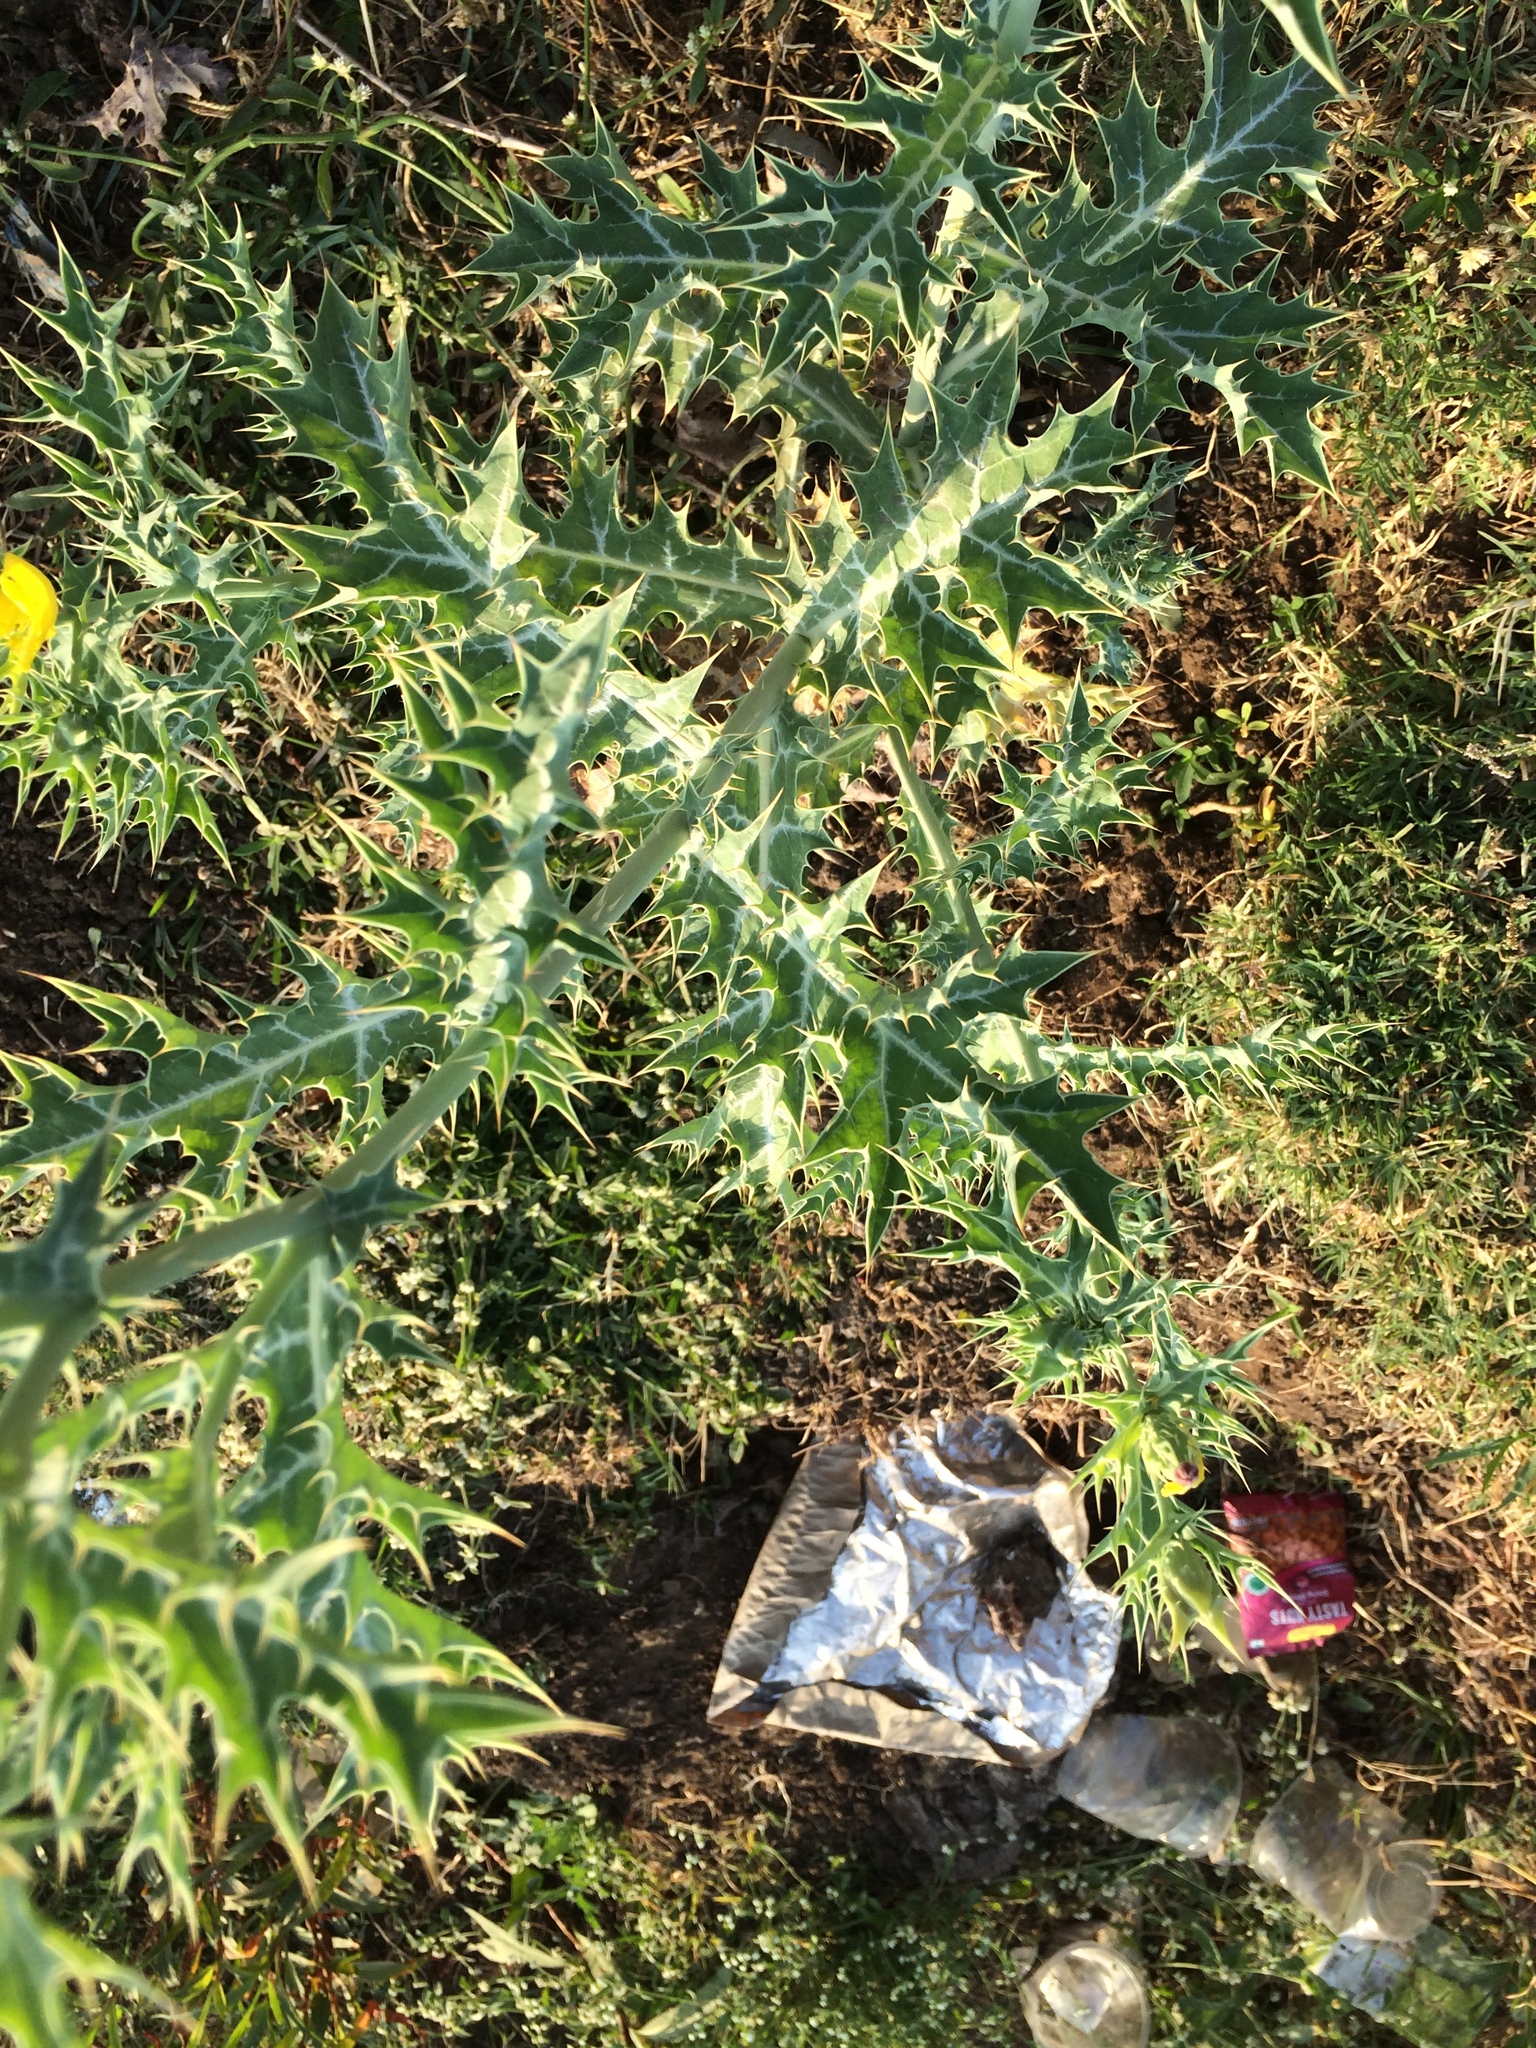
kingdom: Plantae
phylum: Tracheophyta
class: Magnoliopsida
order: Ranunculales
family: Papaveraceae
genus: Argemone
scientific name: Argemone mexicana
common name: Mexican poppy
